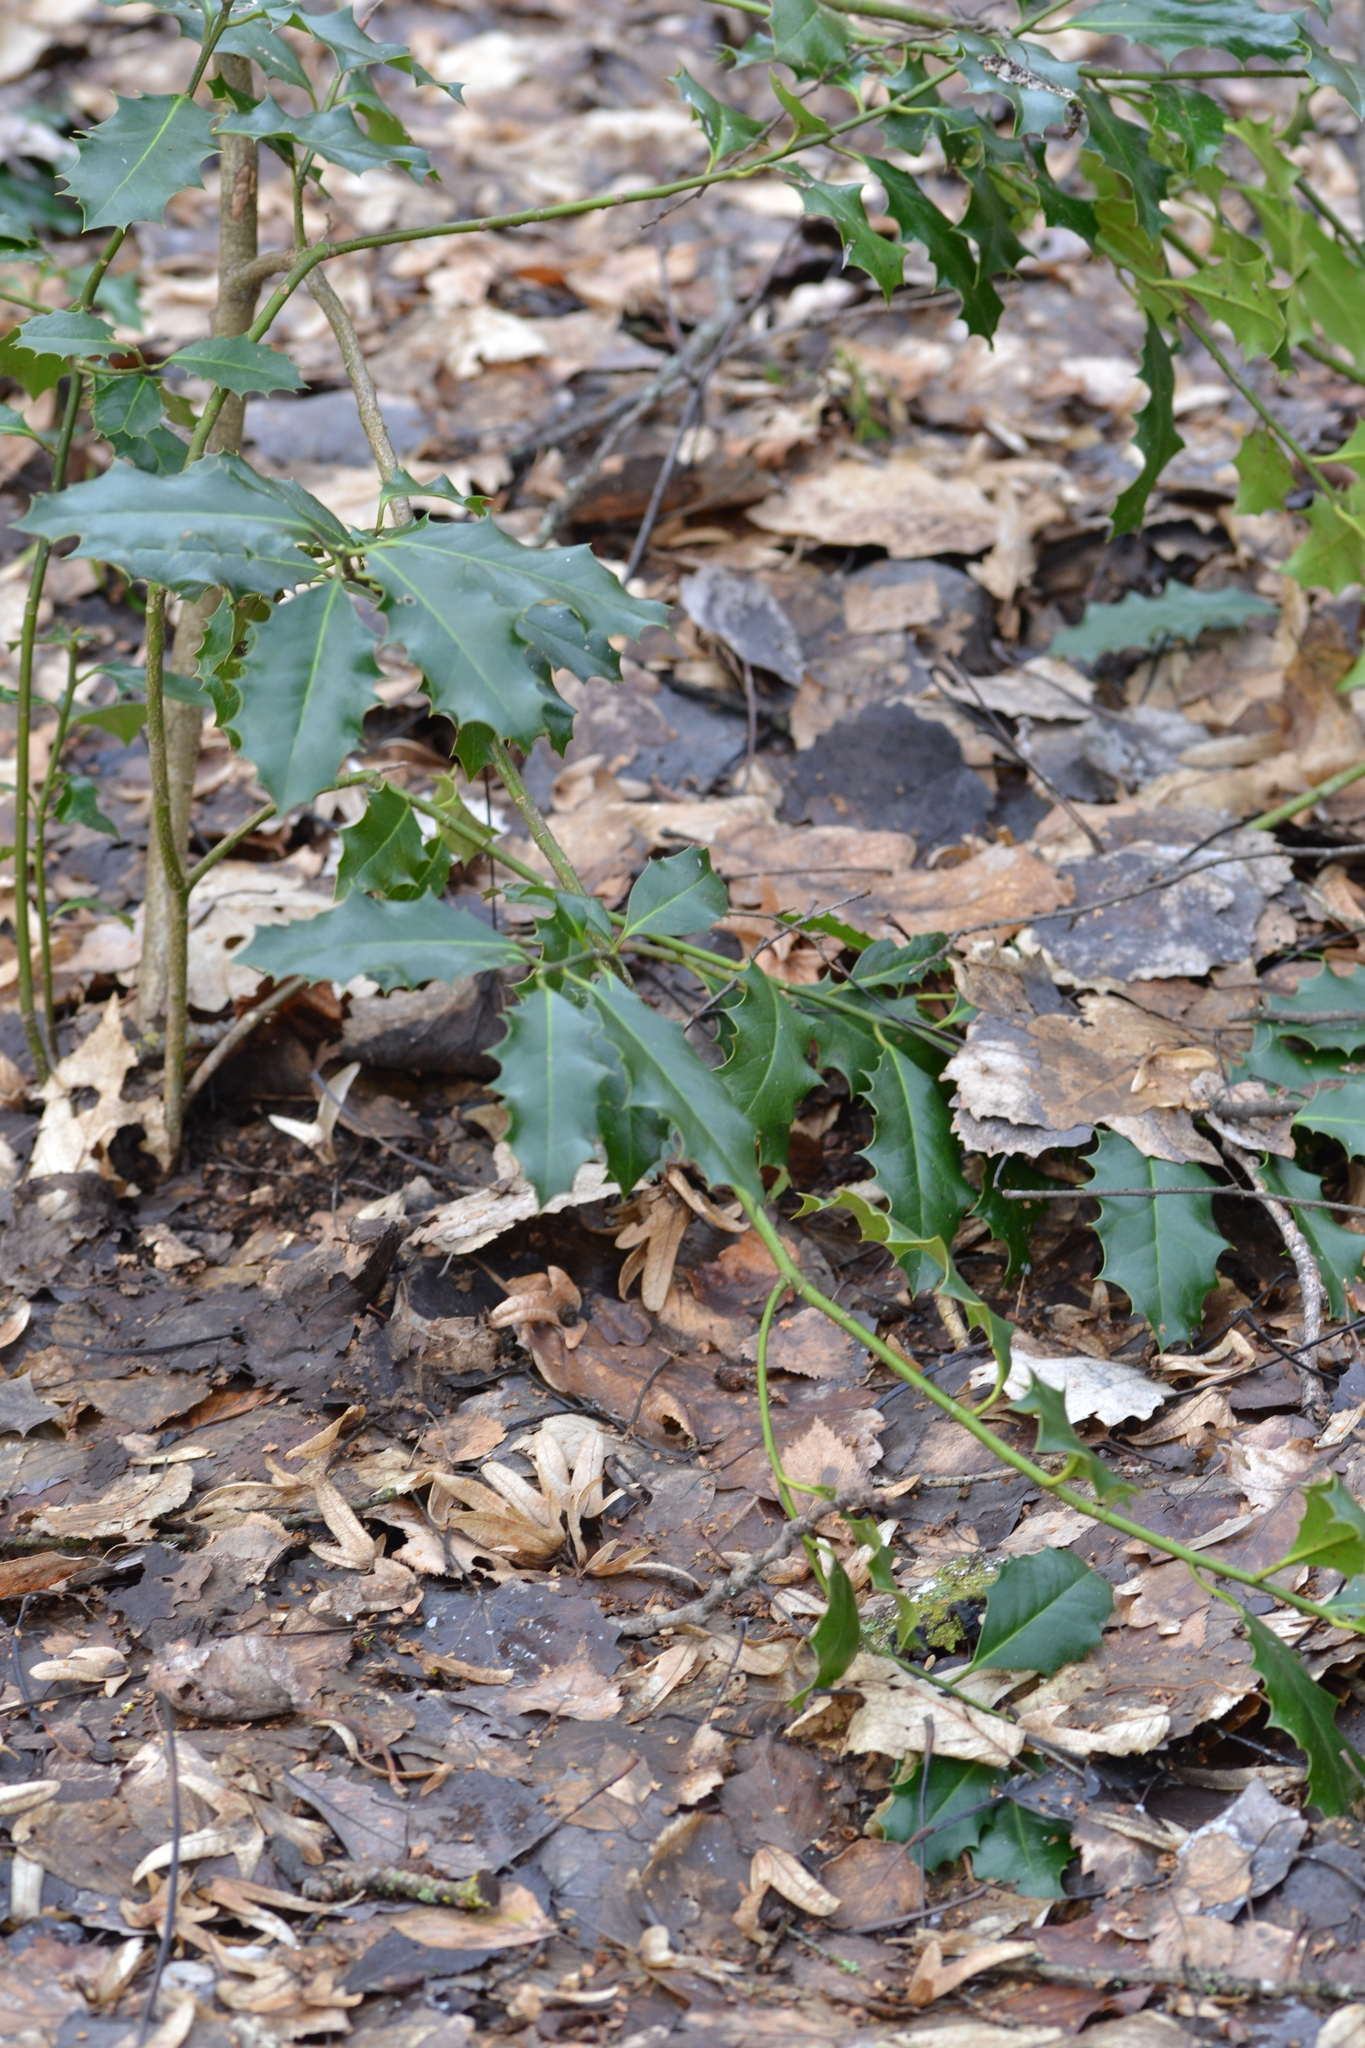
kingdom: Plantae
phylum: Tracheophyta
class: Magnoliopsida
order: Aquifoliales
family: Aquifoliaceae
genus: Ilex
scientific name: Ilex aquifolium
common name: English holly
